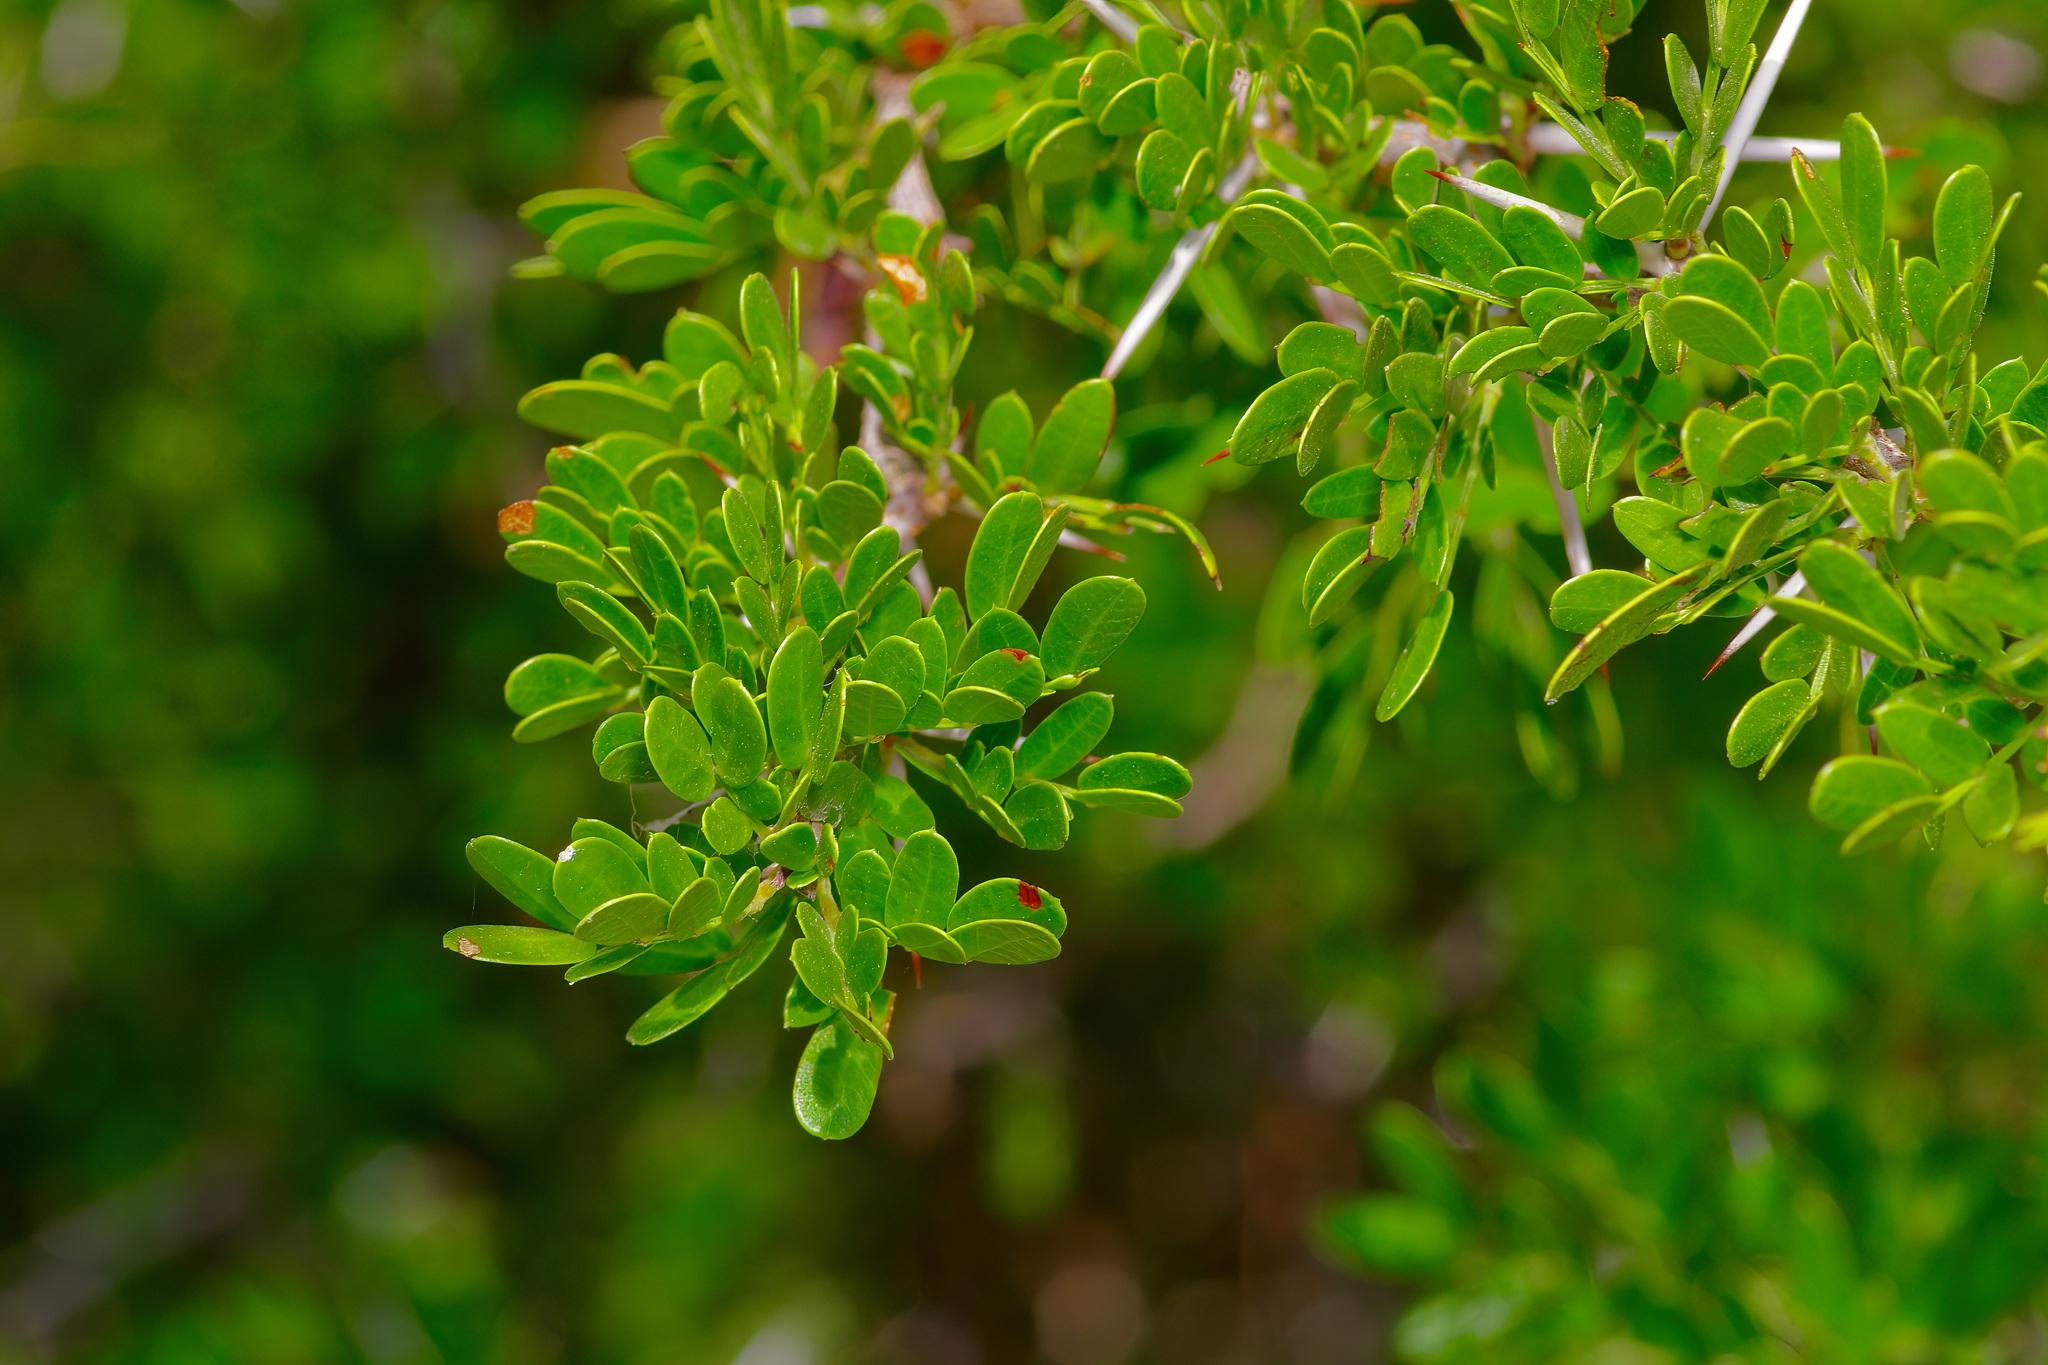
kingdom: Plantae
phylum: Tracheophyta
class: Magnoliopsida
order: Fabales
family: Fabaceae
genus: Vachellia
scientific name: Vachellia rigidula
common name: Blackbrush
